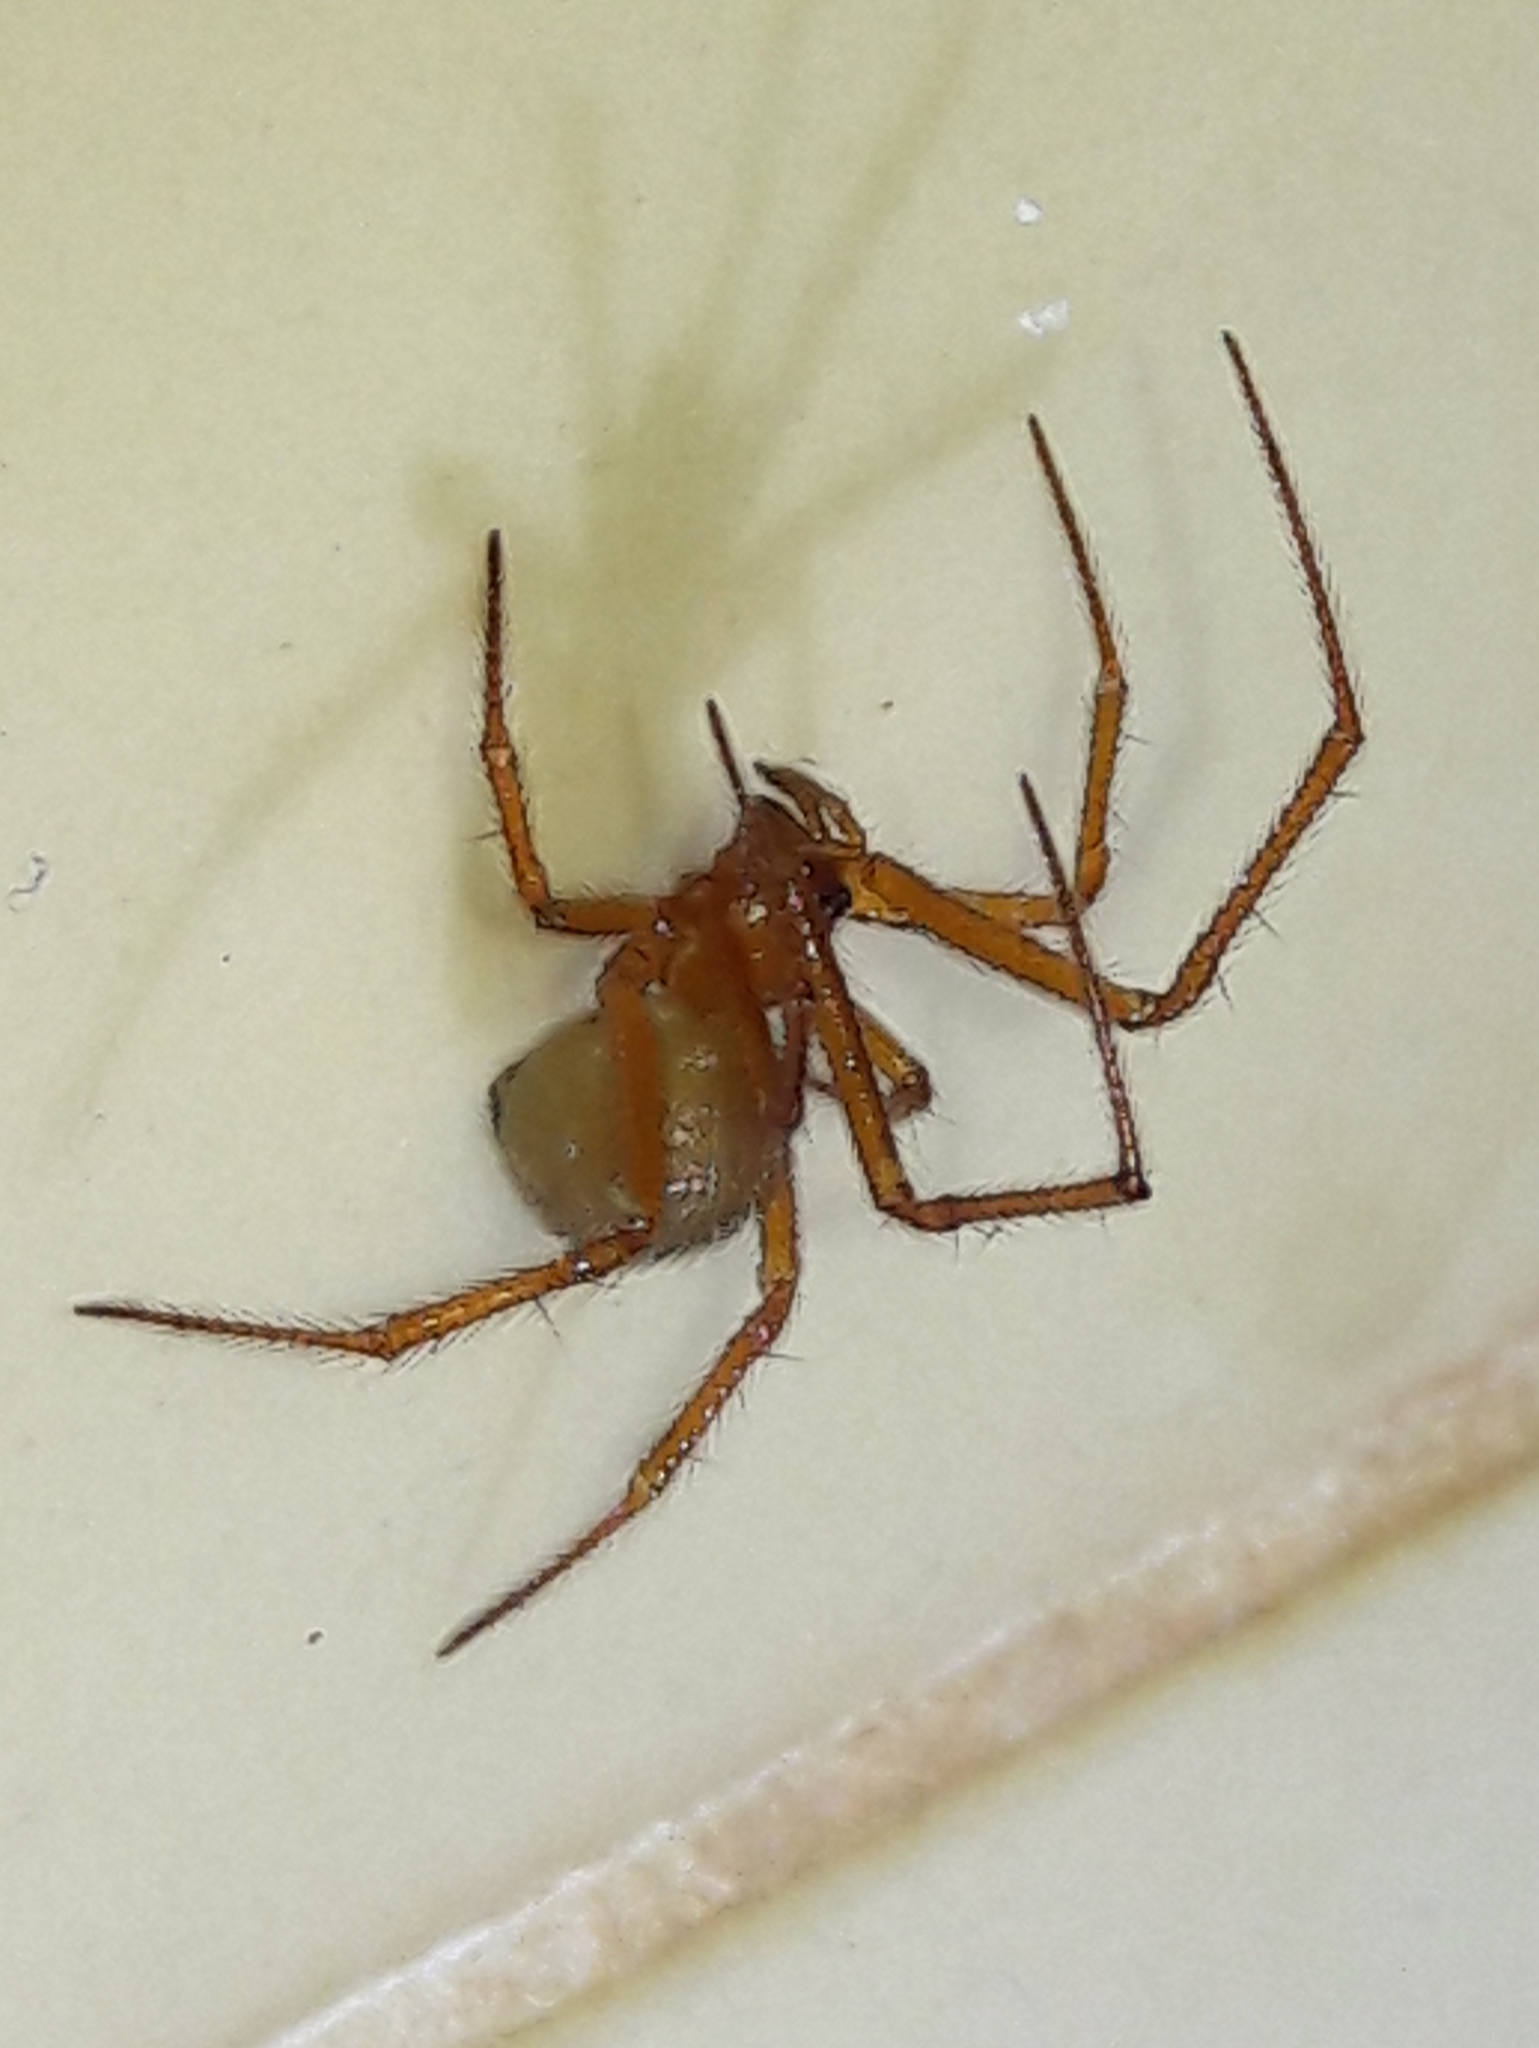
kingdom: Animalia
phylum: Arthropoda
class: Arachnida
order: Araneae
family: Theridiidae
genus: Nesticodes
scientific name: Nesticodes rufipes
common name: Cobweb spiders
